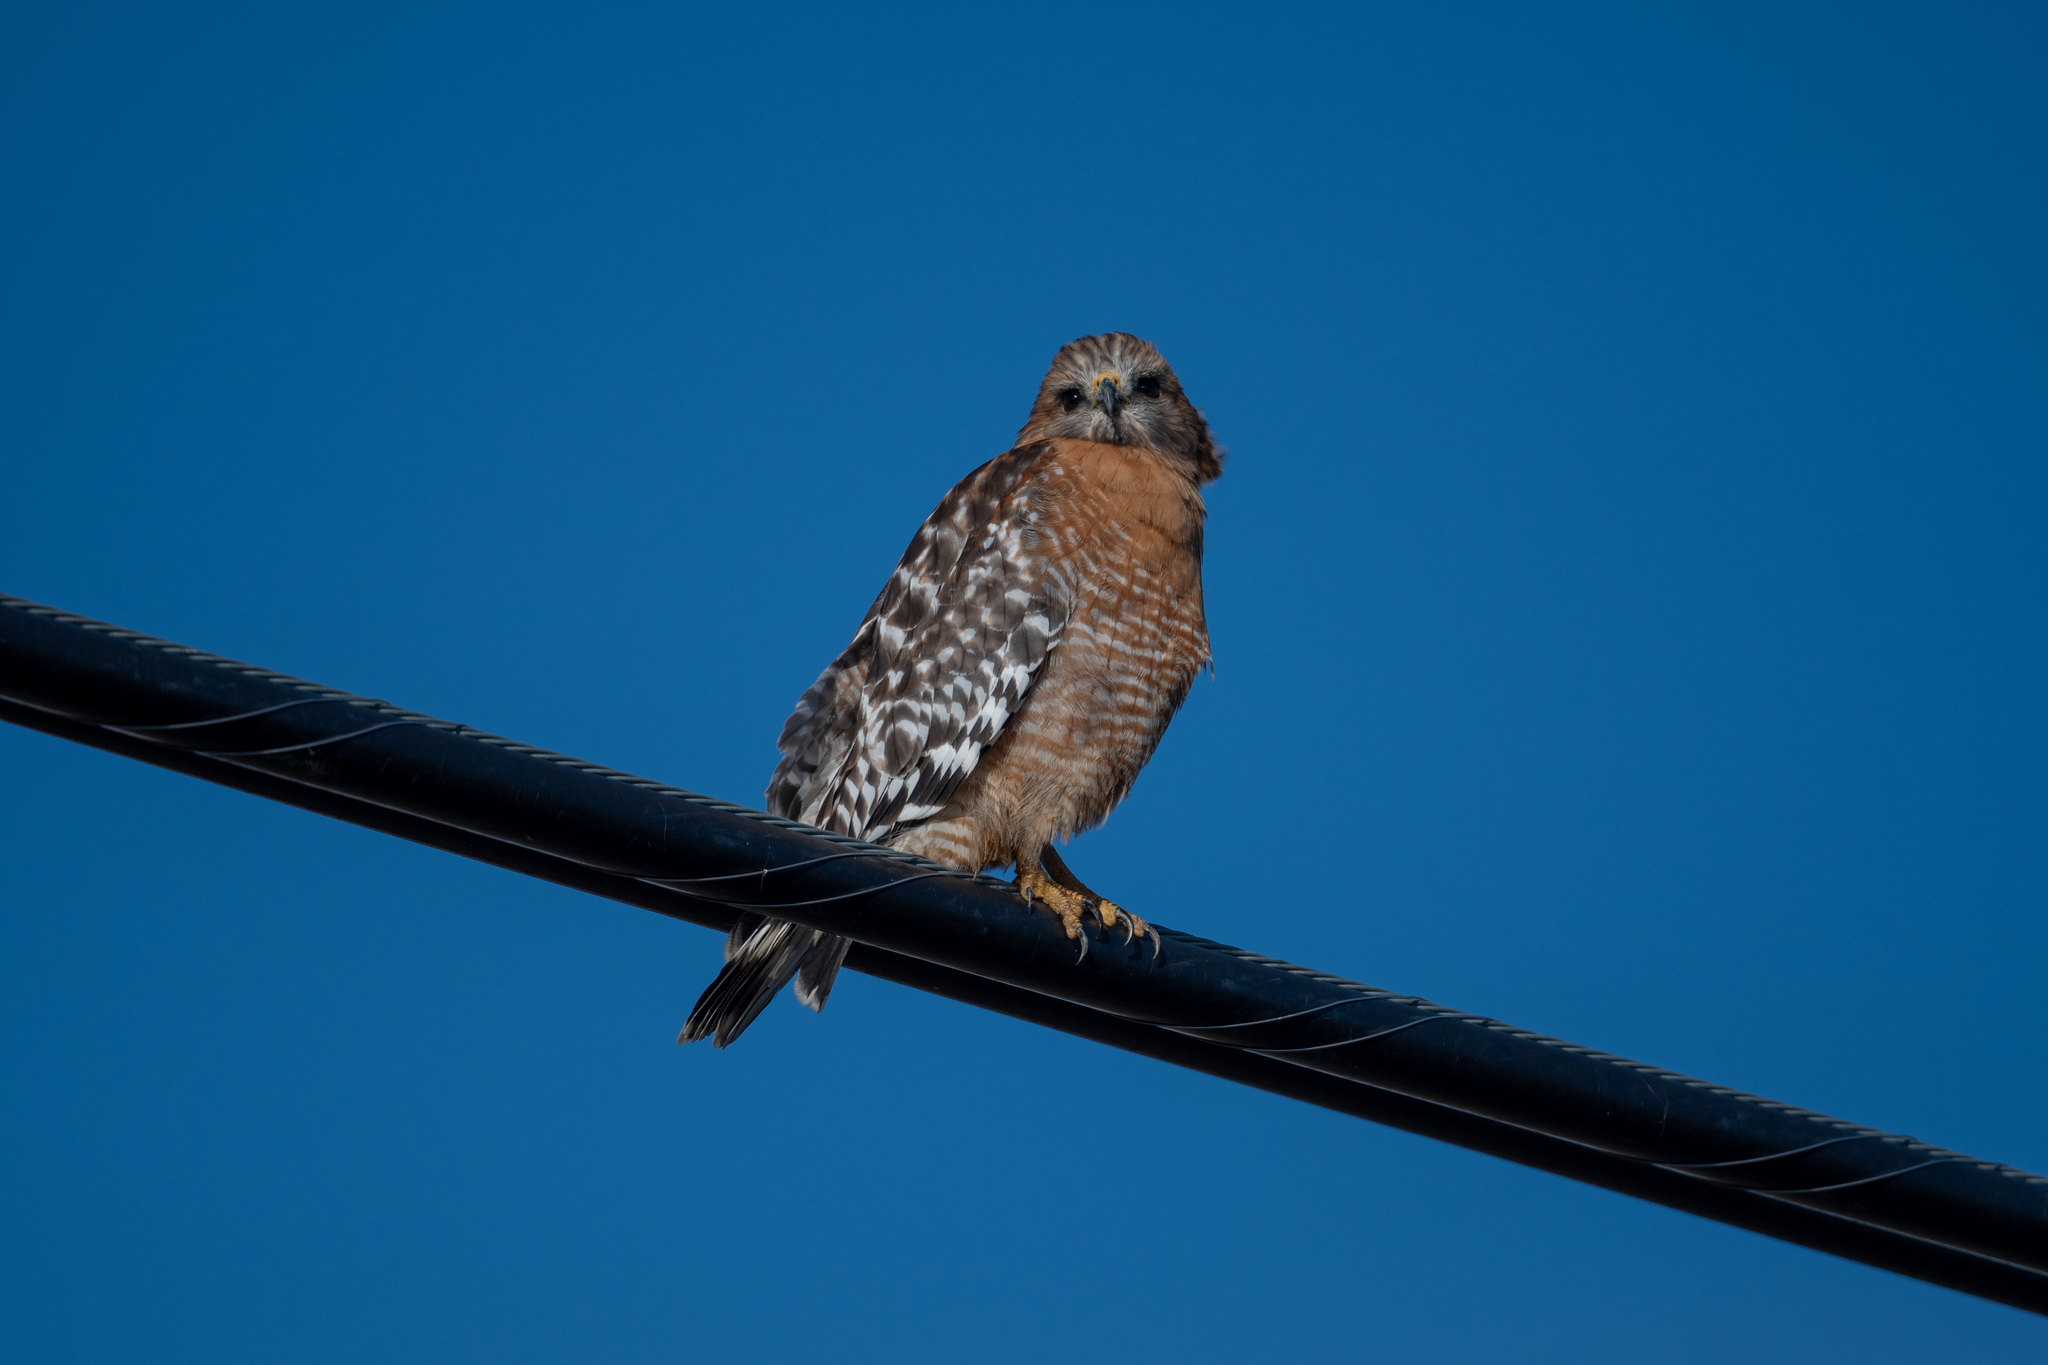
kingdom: Animalia
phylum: Chordata
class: Aves
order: Accipitriformes
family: Accipitridae
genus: Buteo
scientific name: Buteo lineatus
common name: Red-shouldered hawk
